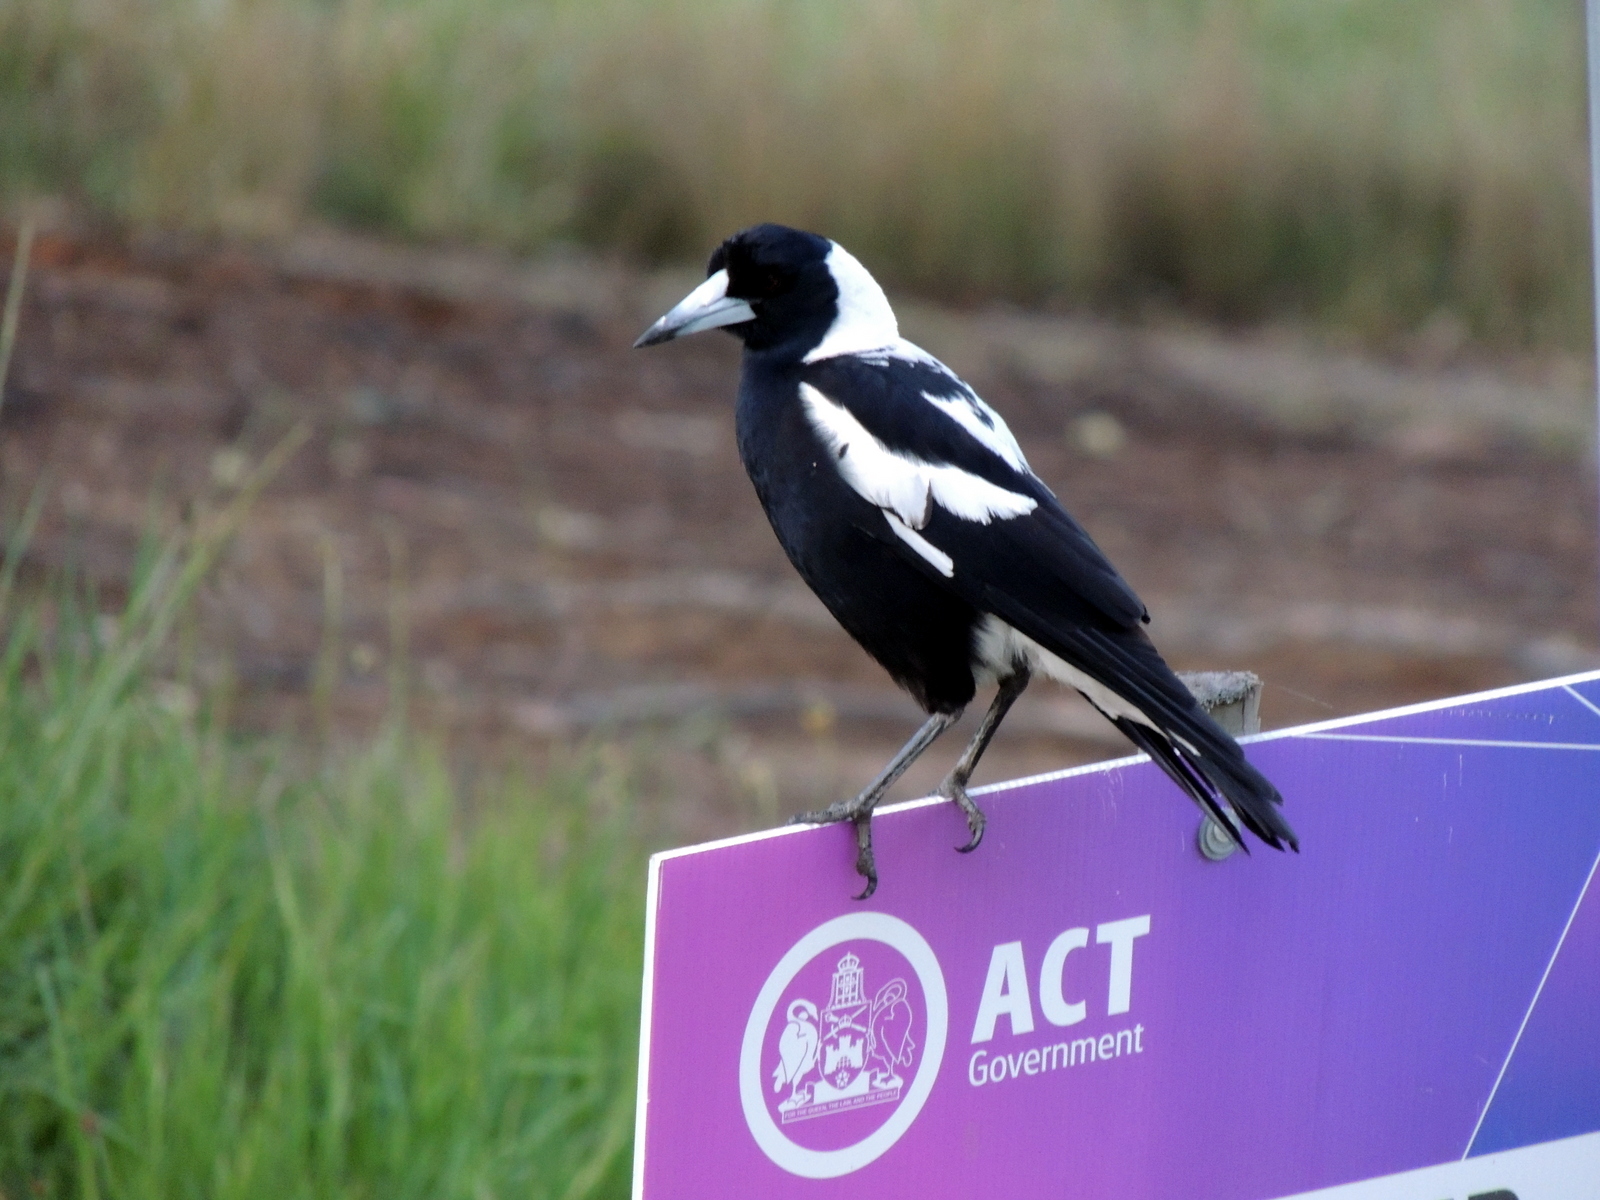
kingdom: Animalia
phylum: Chordata
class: Aves
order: Passeriformes
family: Cracticidae
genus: Gymnorhina
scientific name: Gymnorhina tibicen
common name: Australian magpie
